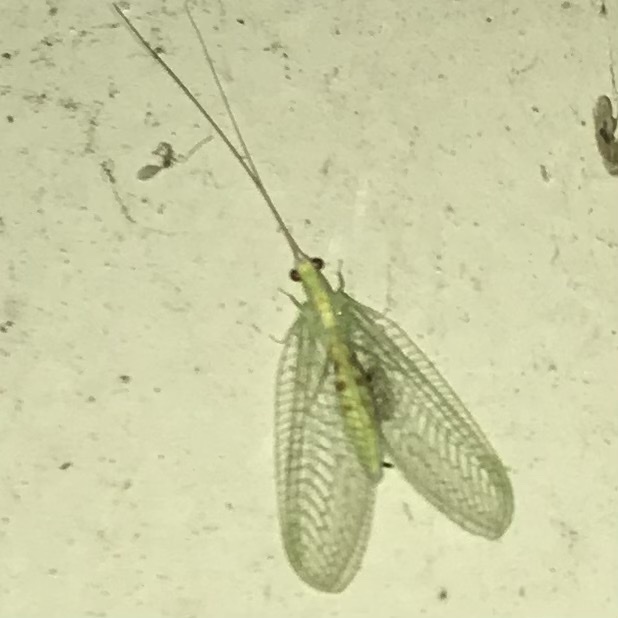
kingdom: Animalia
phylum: Arthropoda
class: Insecta
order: Neuroptera
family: Chrysopidae
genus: Chrysopa
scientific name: Chrysopa quadripunctata
